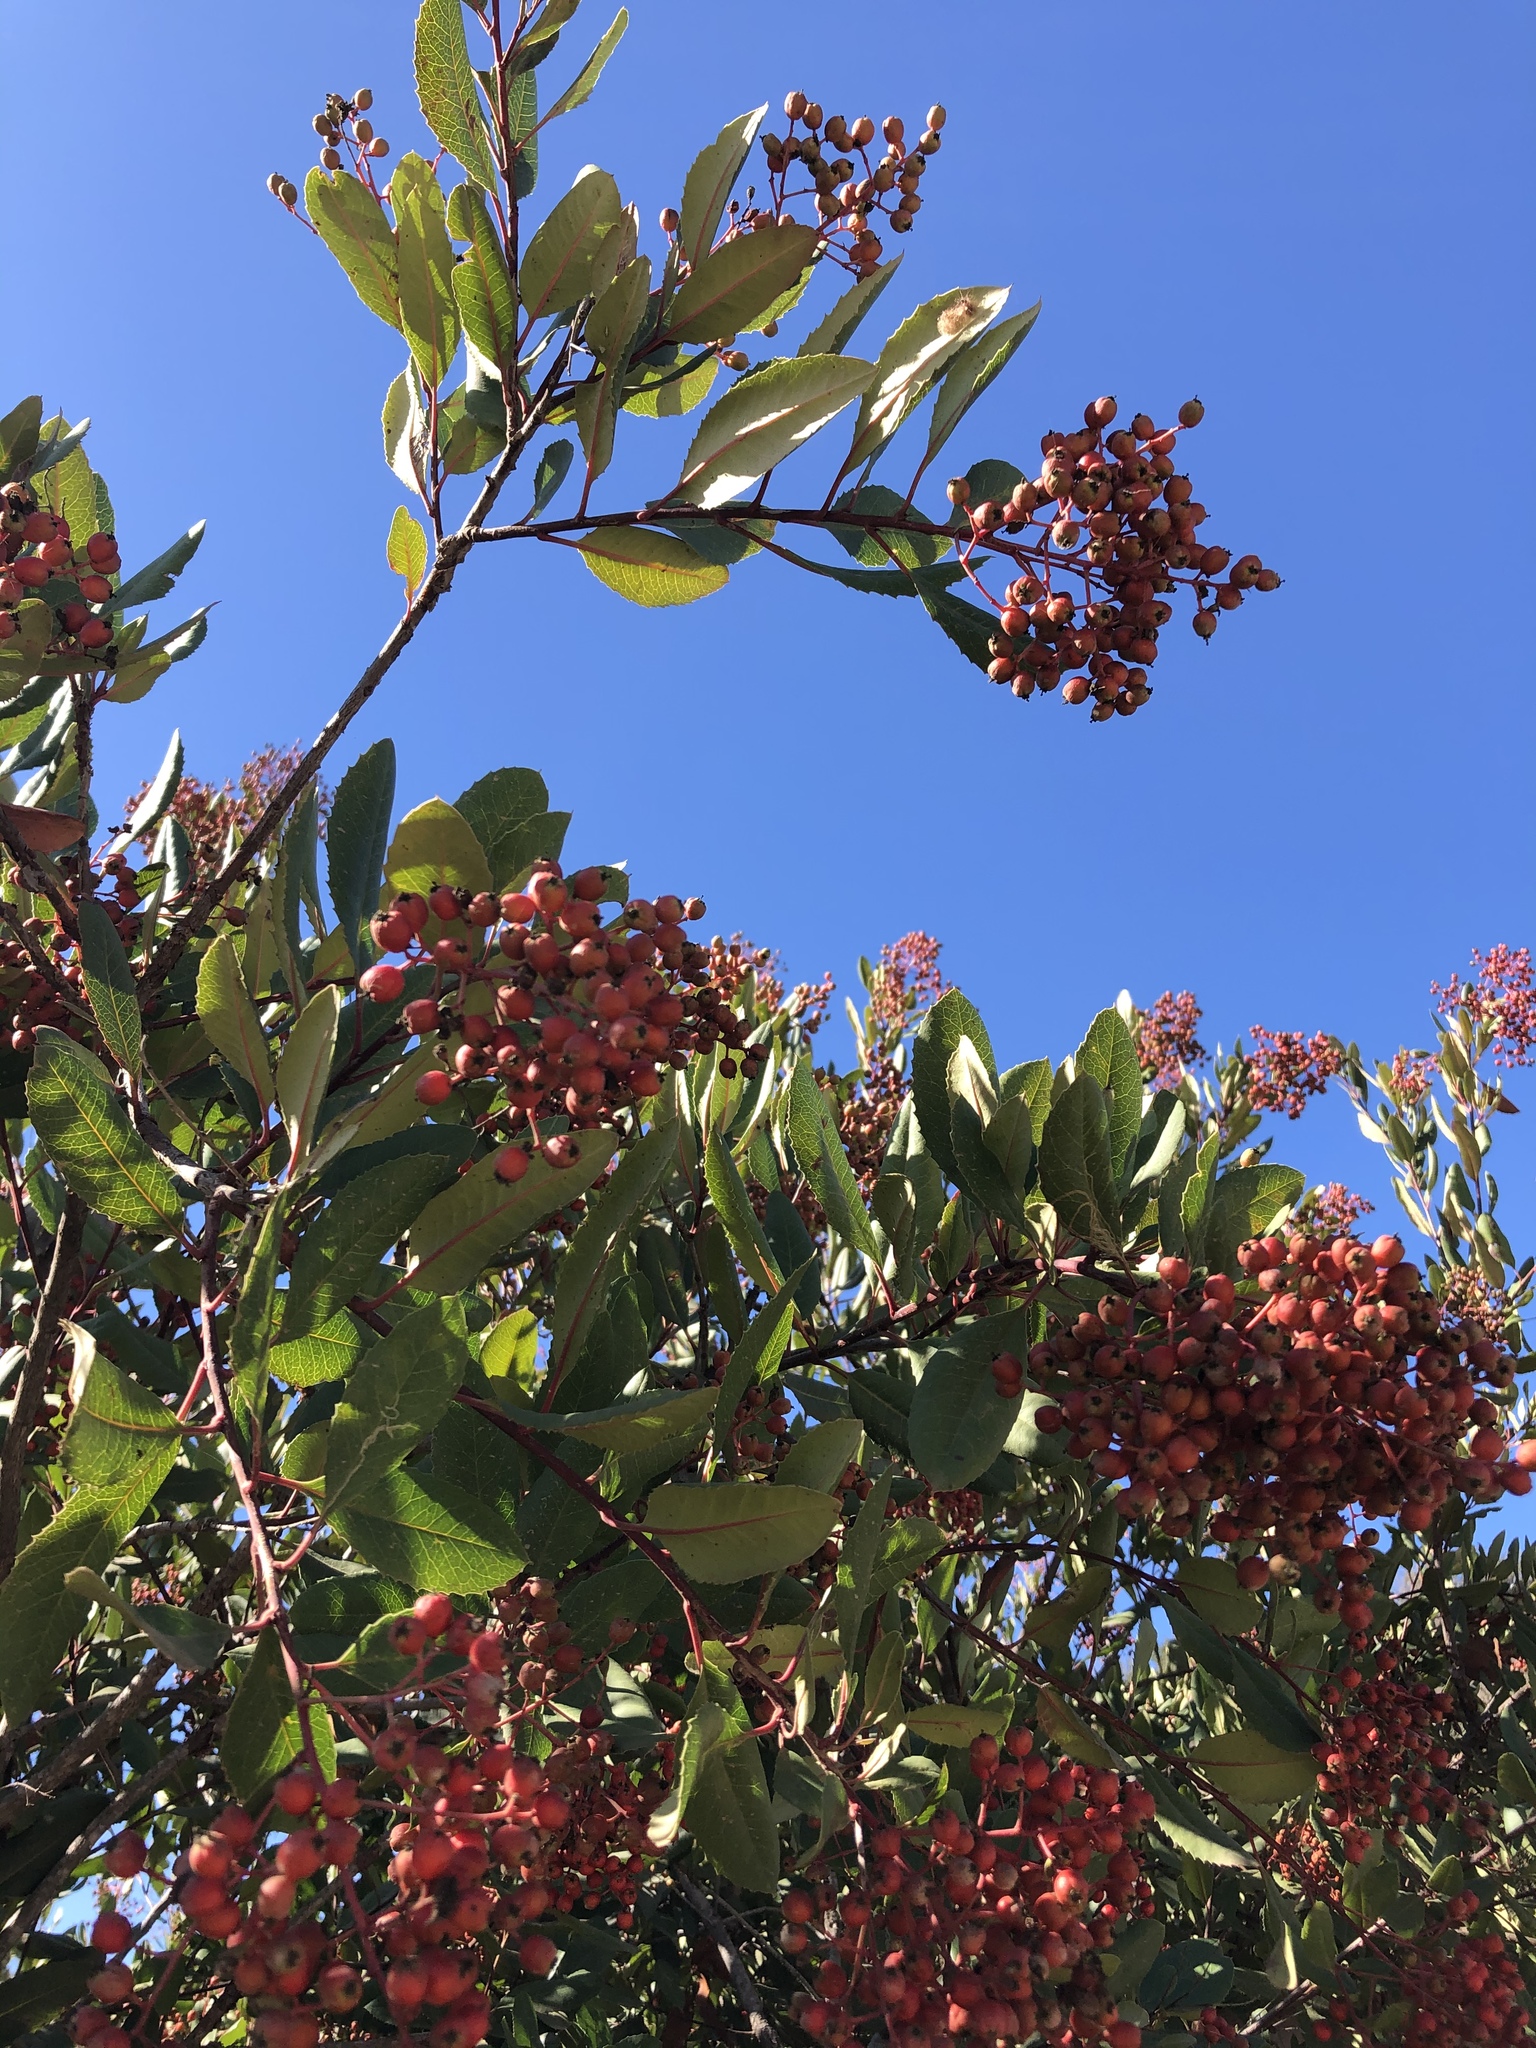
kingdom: Plantae
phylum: Tracheophyta
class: Magnoliopsida
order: Rosales
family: Rosaceae
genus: Heteromeles
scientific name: Heteromeles arbutifolia
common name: California-holly
